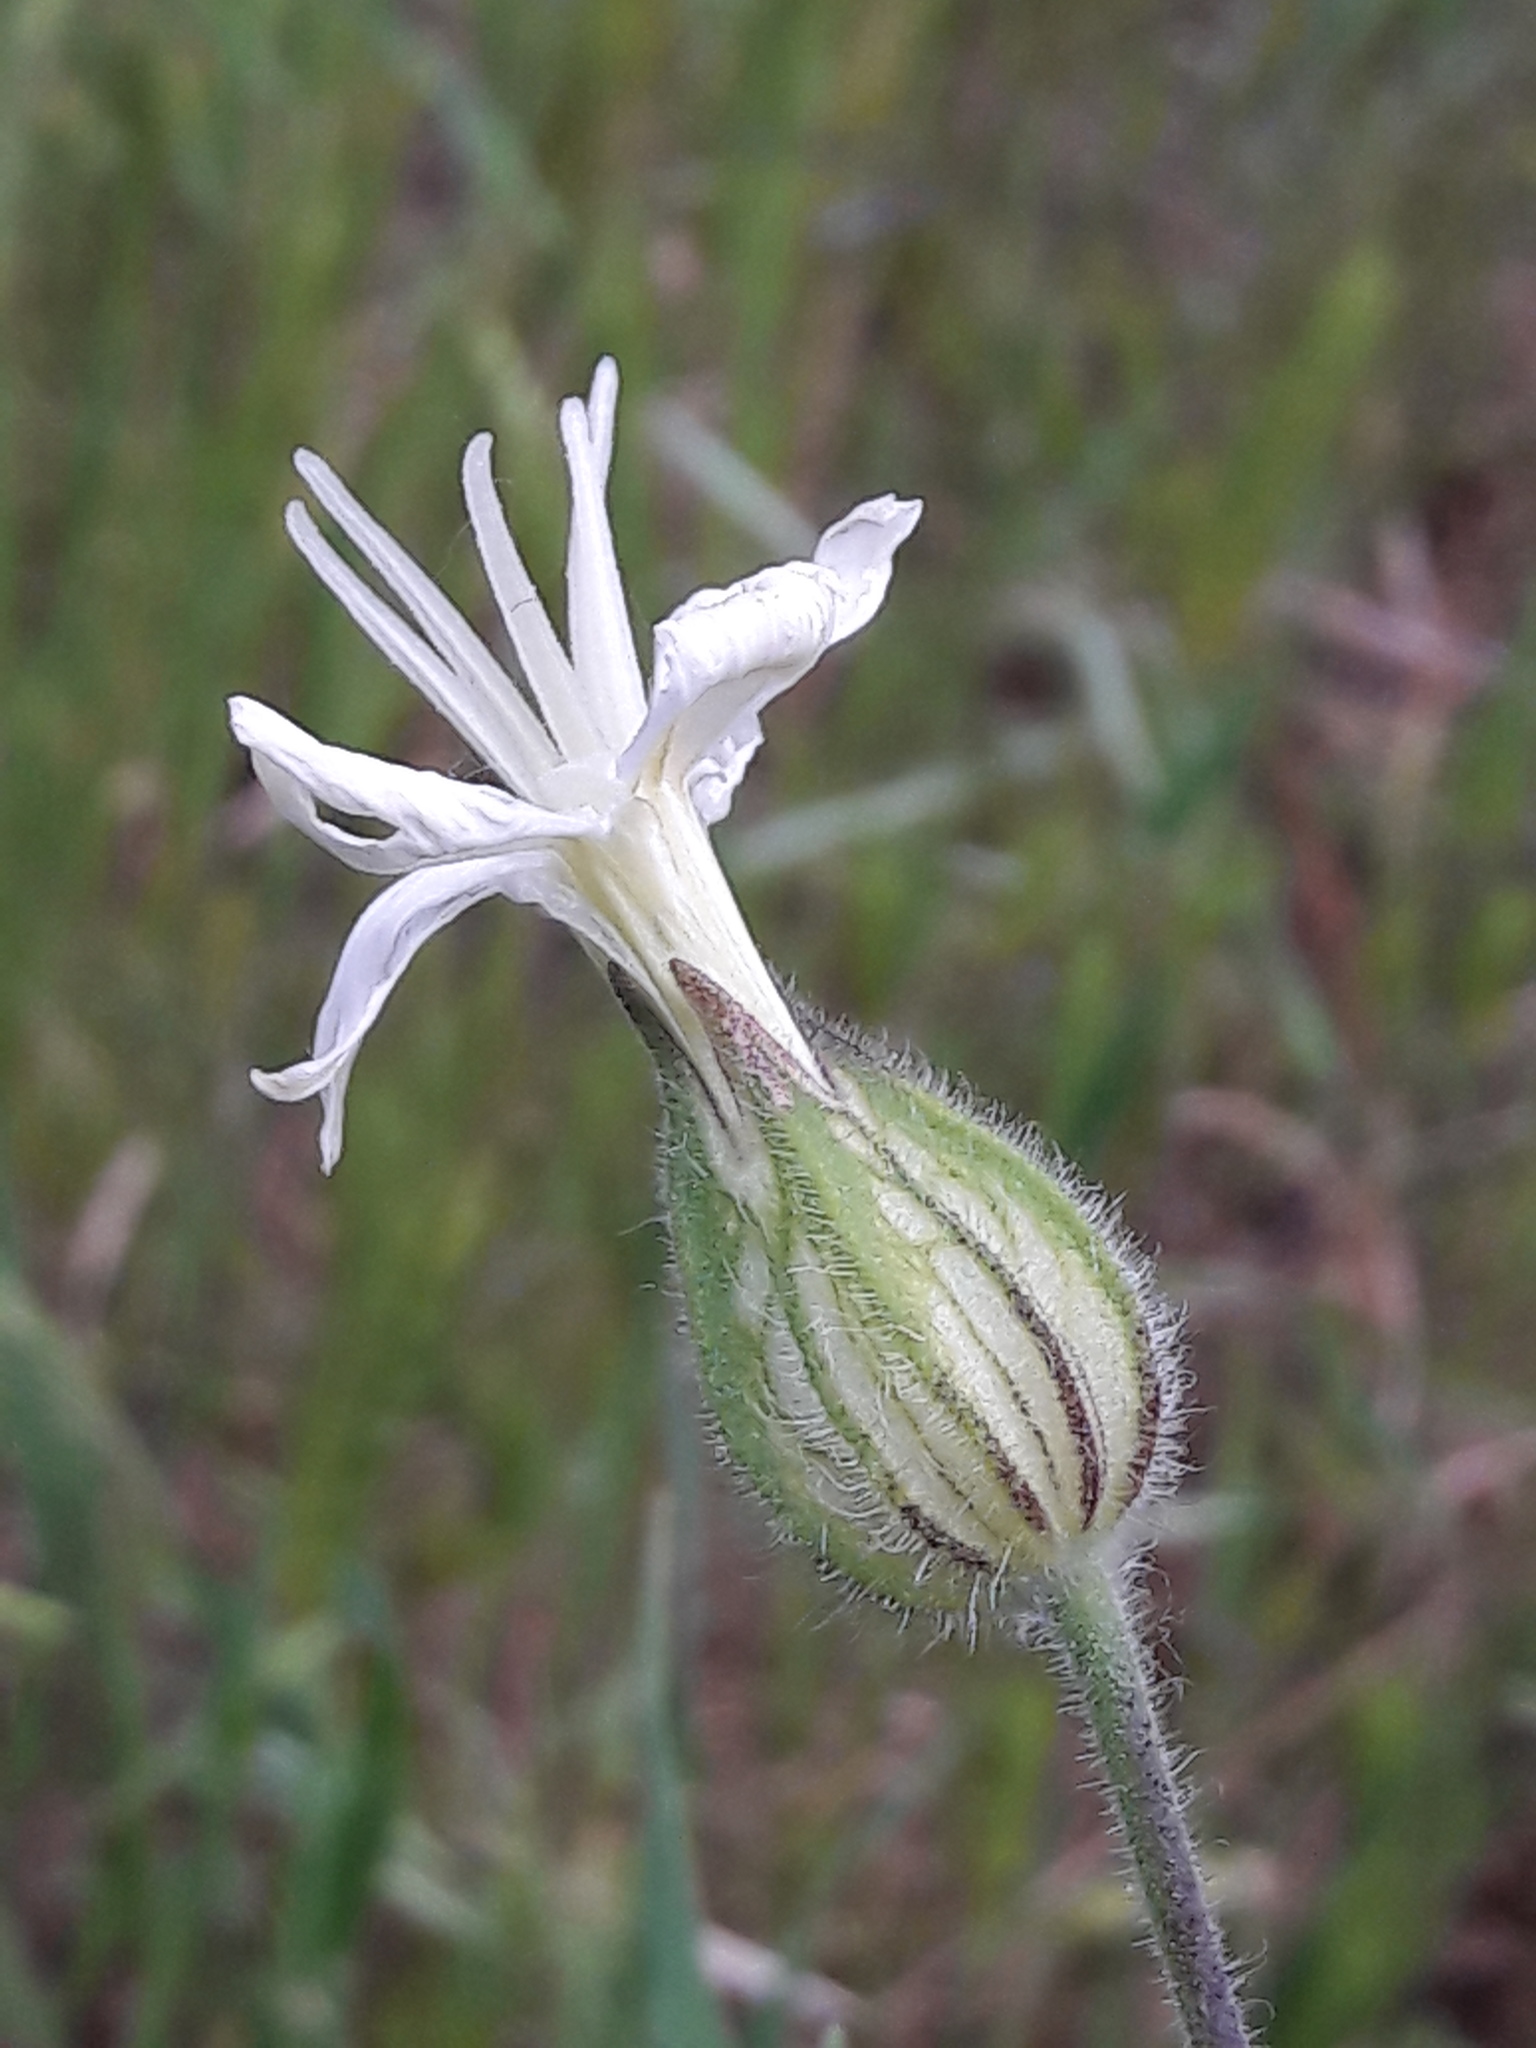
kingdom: Plantae
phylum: Tracheophyta
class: Magnoliopsida
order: Caryophyllales
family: Caryophyllaceae
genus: Silene
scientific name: Silene latifolia
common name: White campion
